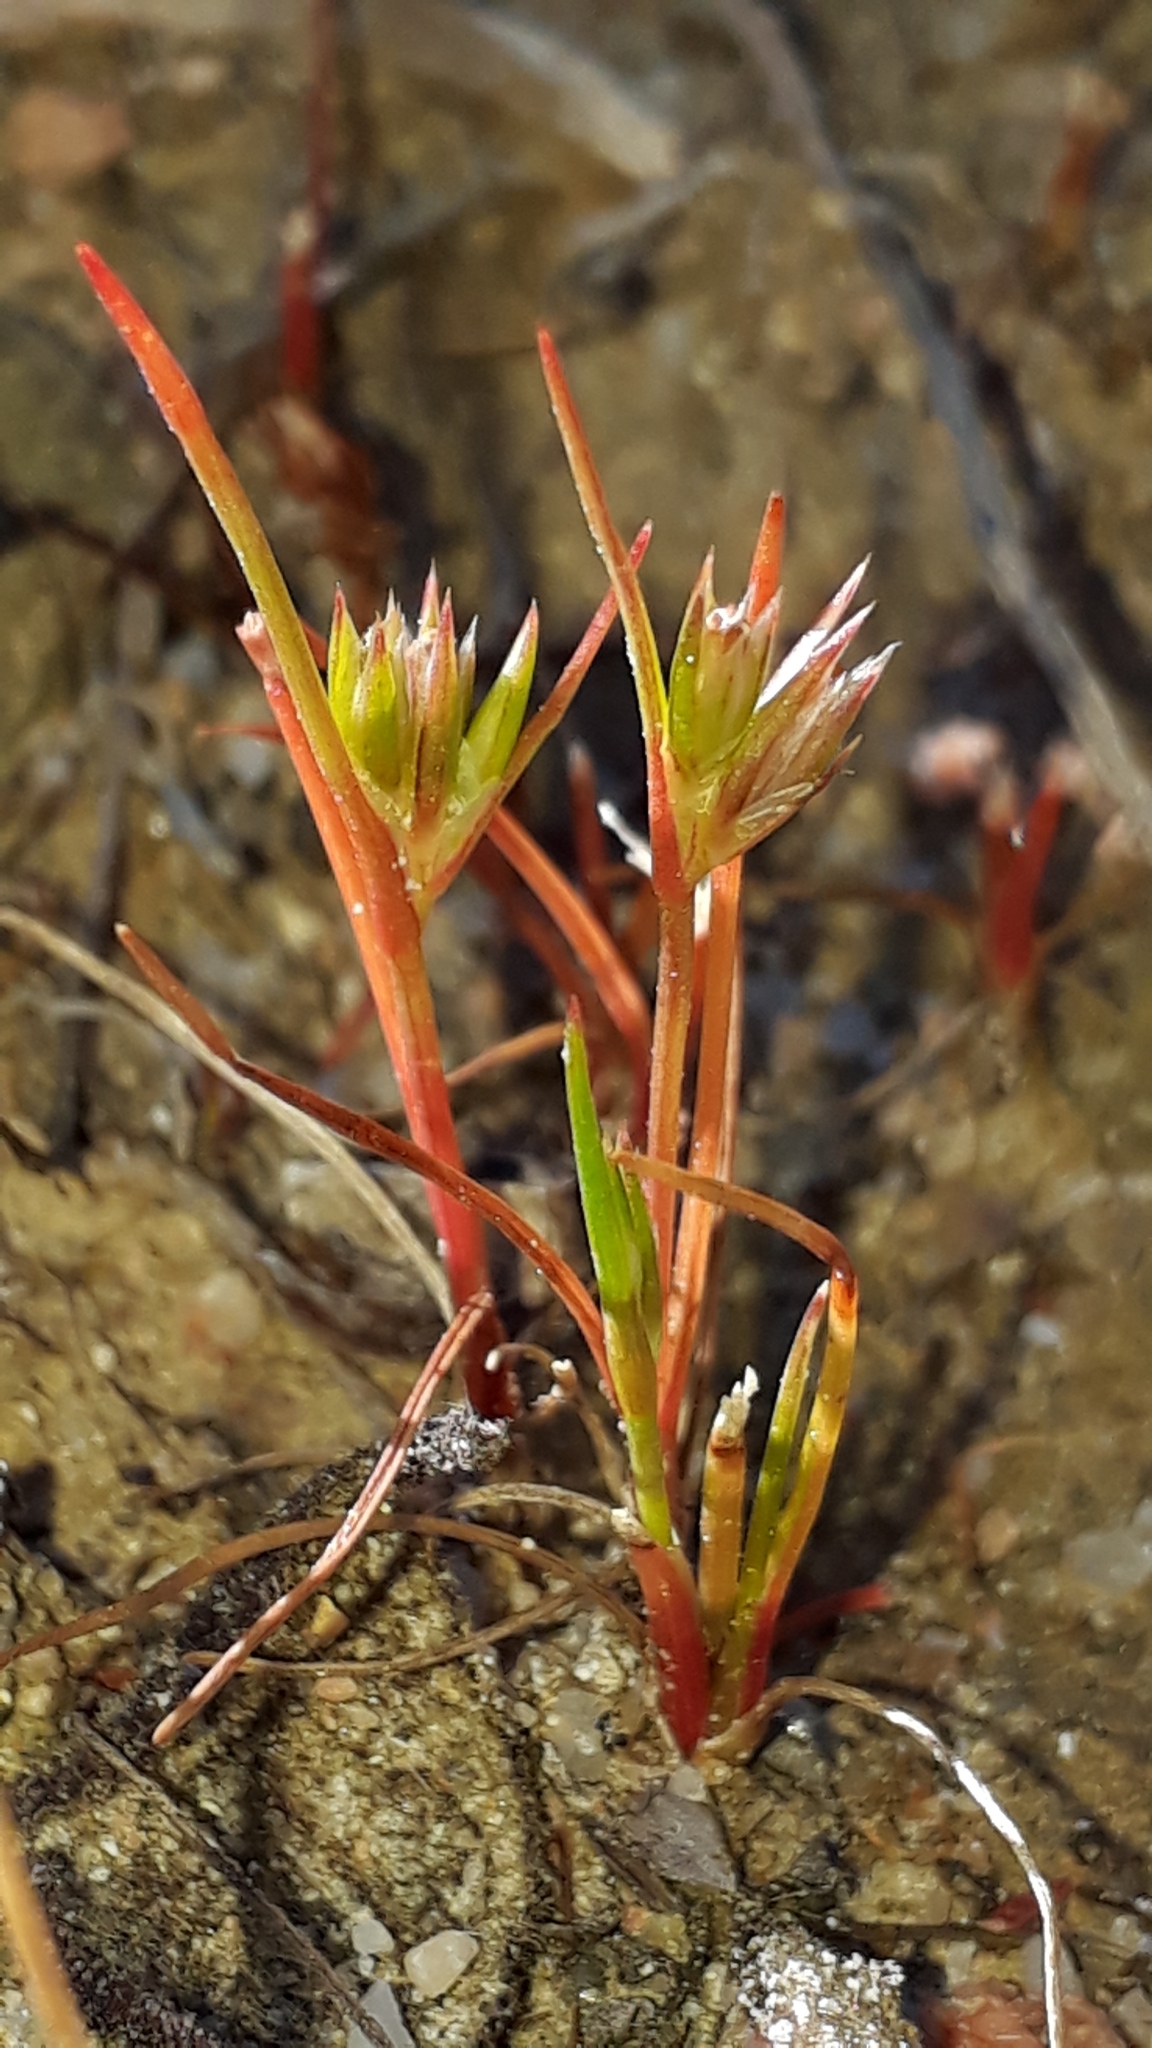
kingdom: Plantae
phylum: Tracheophyta
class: Liliopsida
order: Poales
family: Juncaceae
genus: Juncus
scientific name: Juncus bufonius
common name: Toad rush
